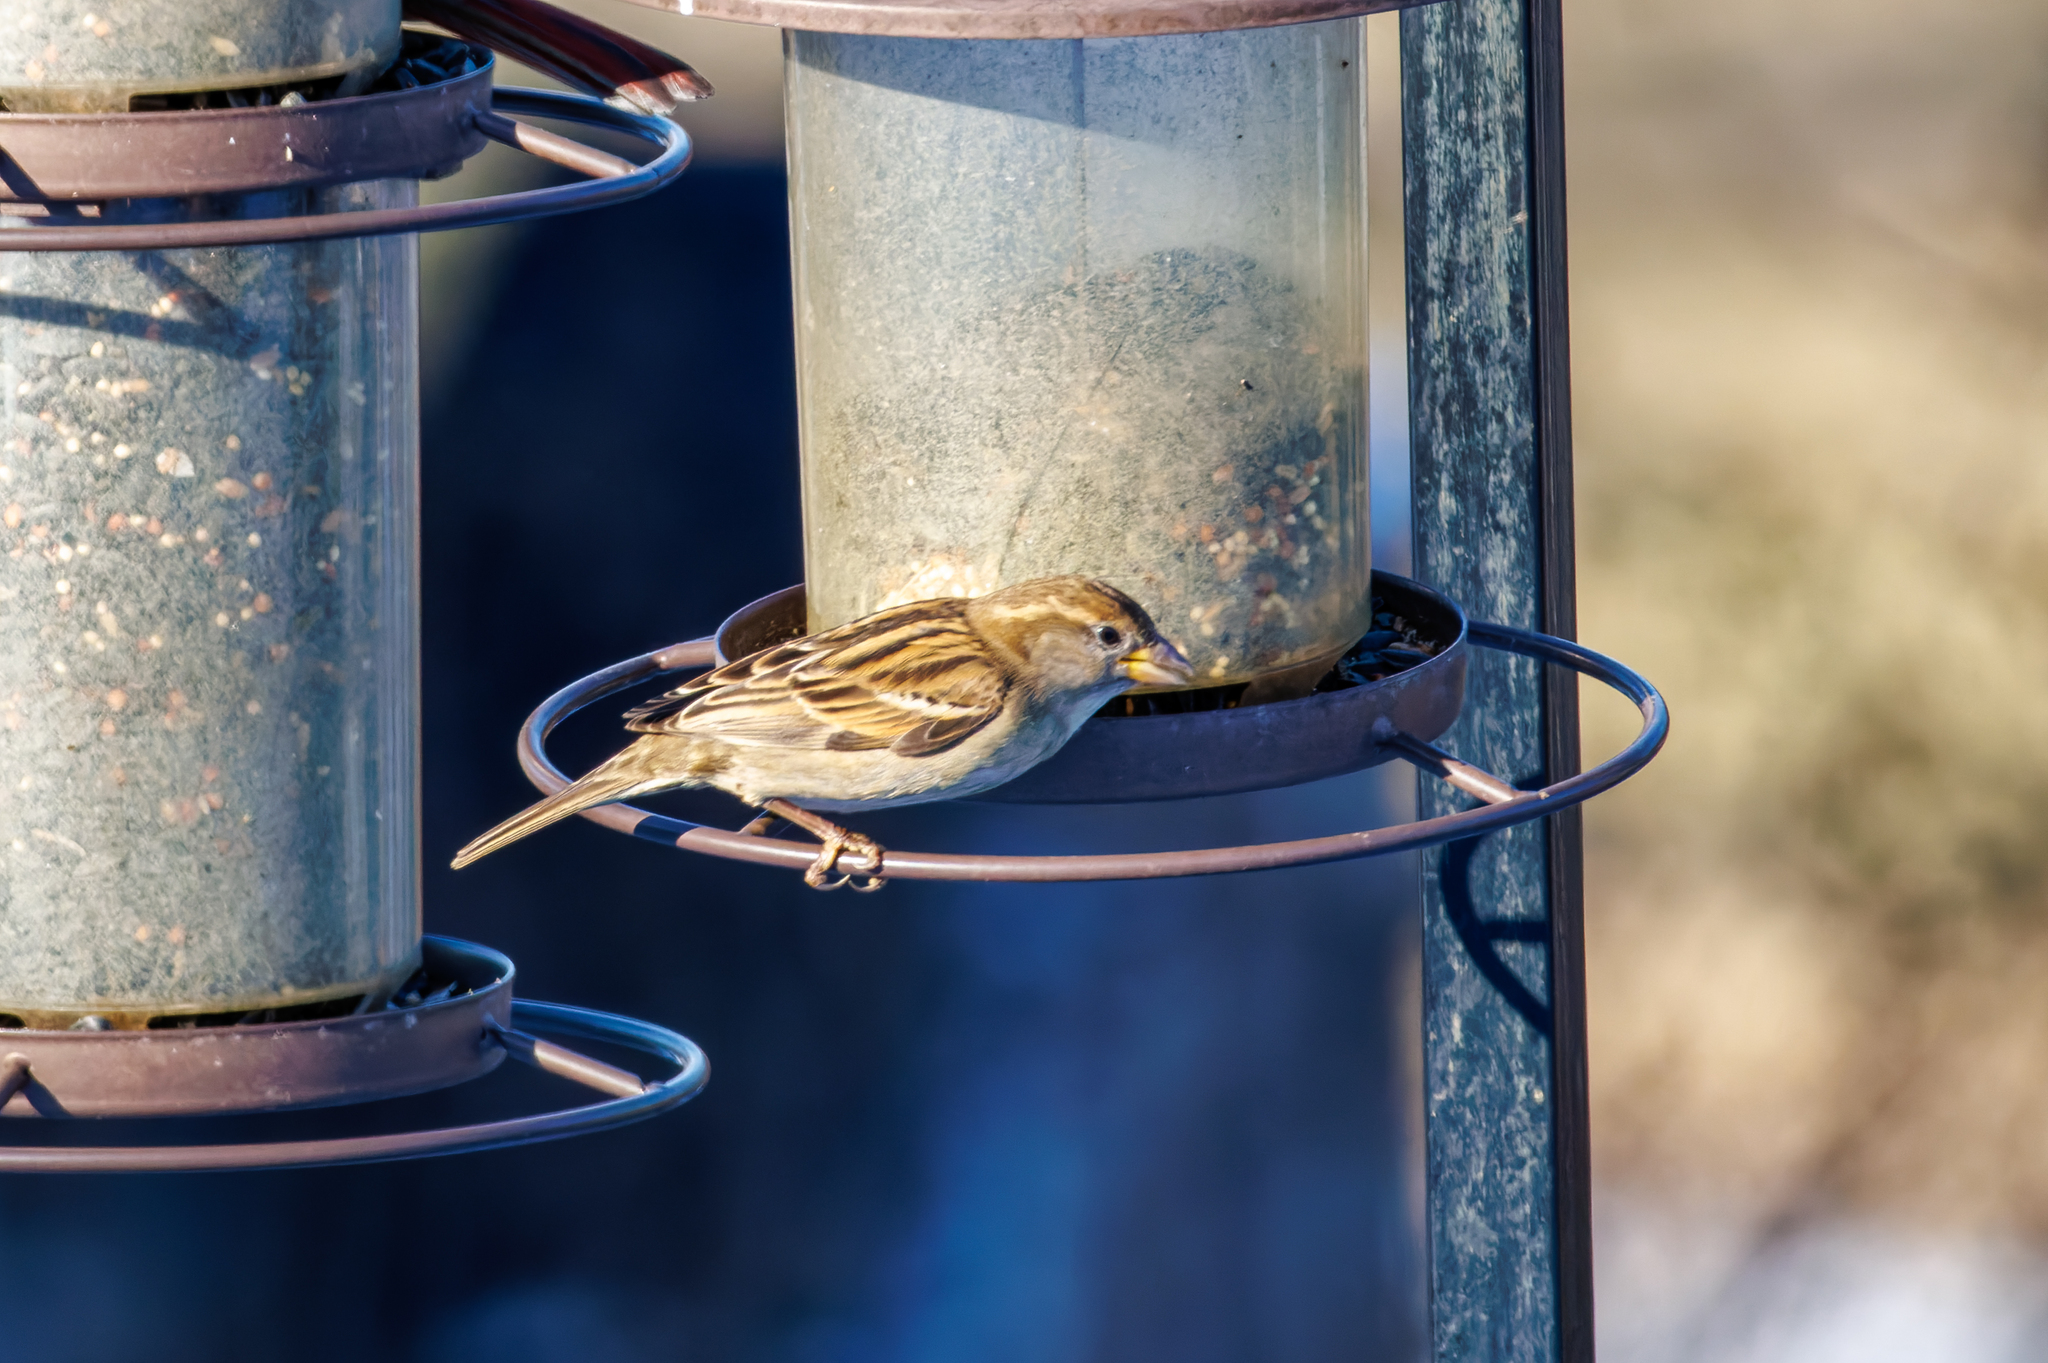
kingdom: Animalia
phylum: Chordata
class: Aves
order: Passeriformes
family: Passeridae
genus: Passer
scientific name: Passer domesticus
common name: House sparrow
